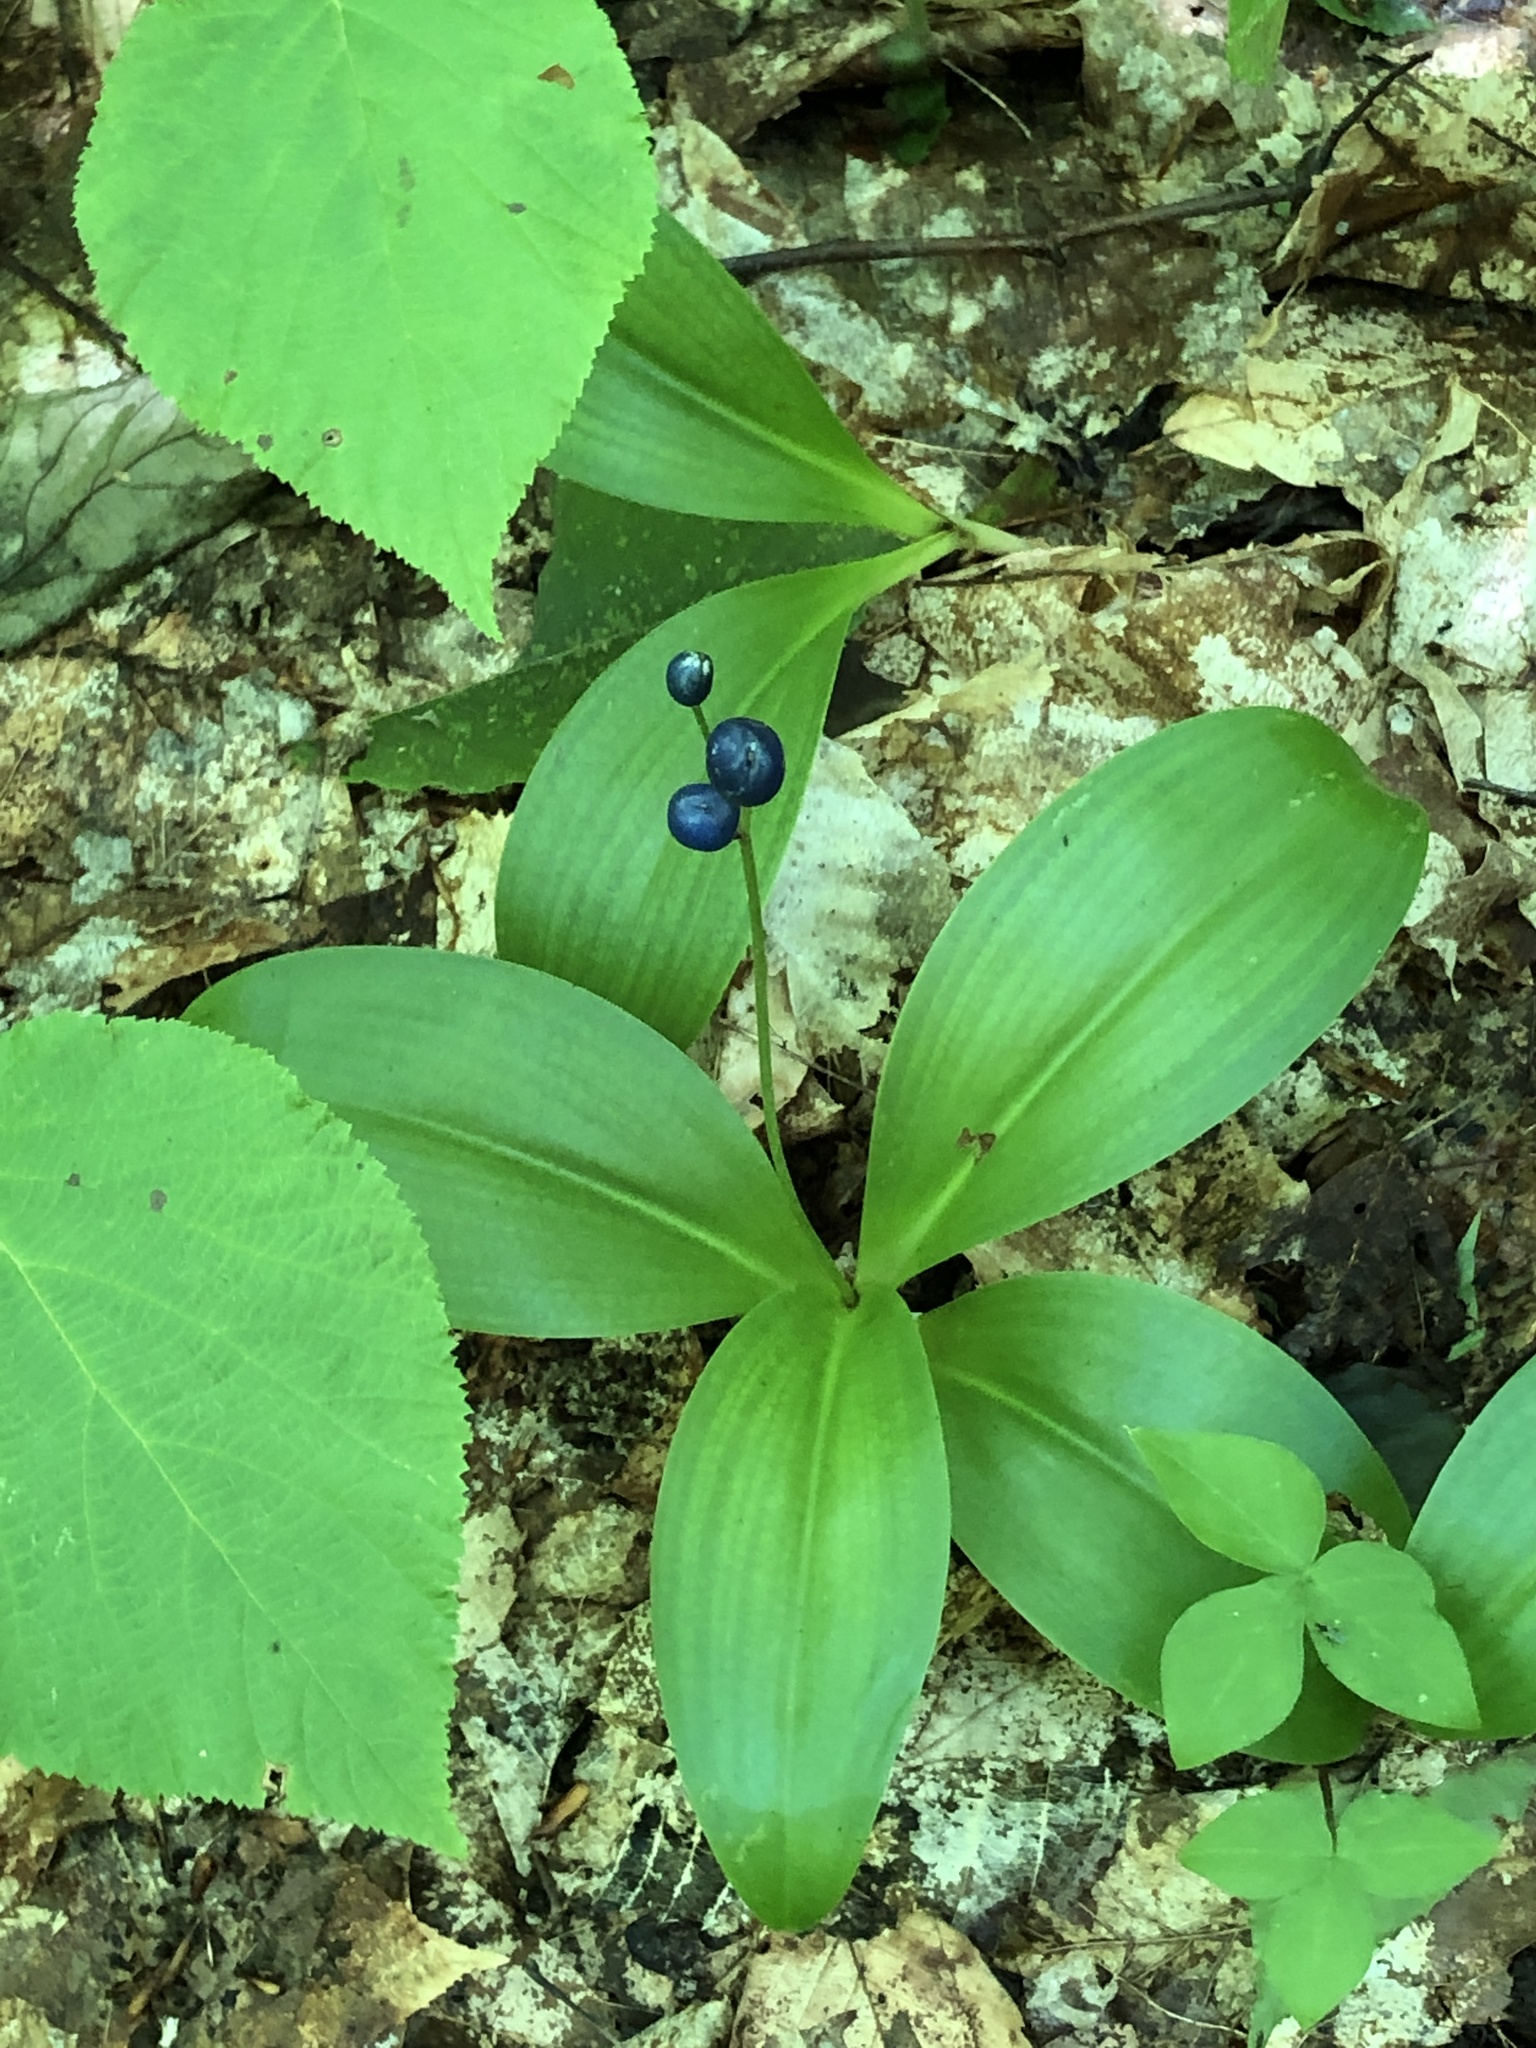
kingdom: Plantae
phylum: Tracheophyta
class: Liliopsida
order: Liliales
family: Liliaceae
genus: Clintonia
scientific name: Clintonia borealis
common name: Yellow clintonia
